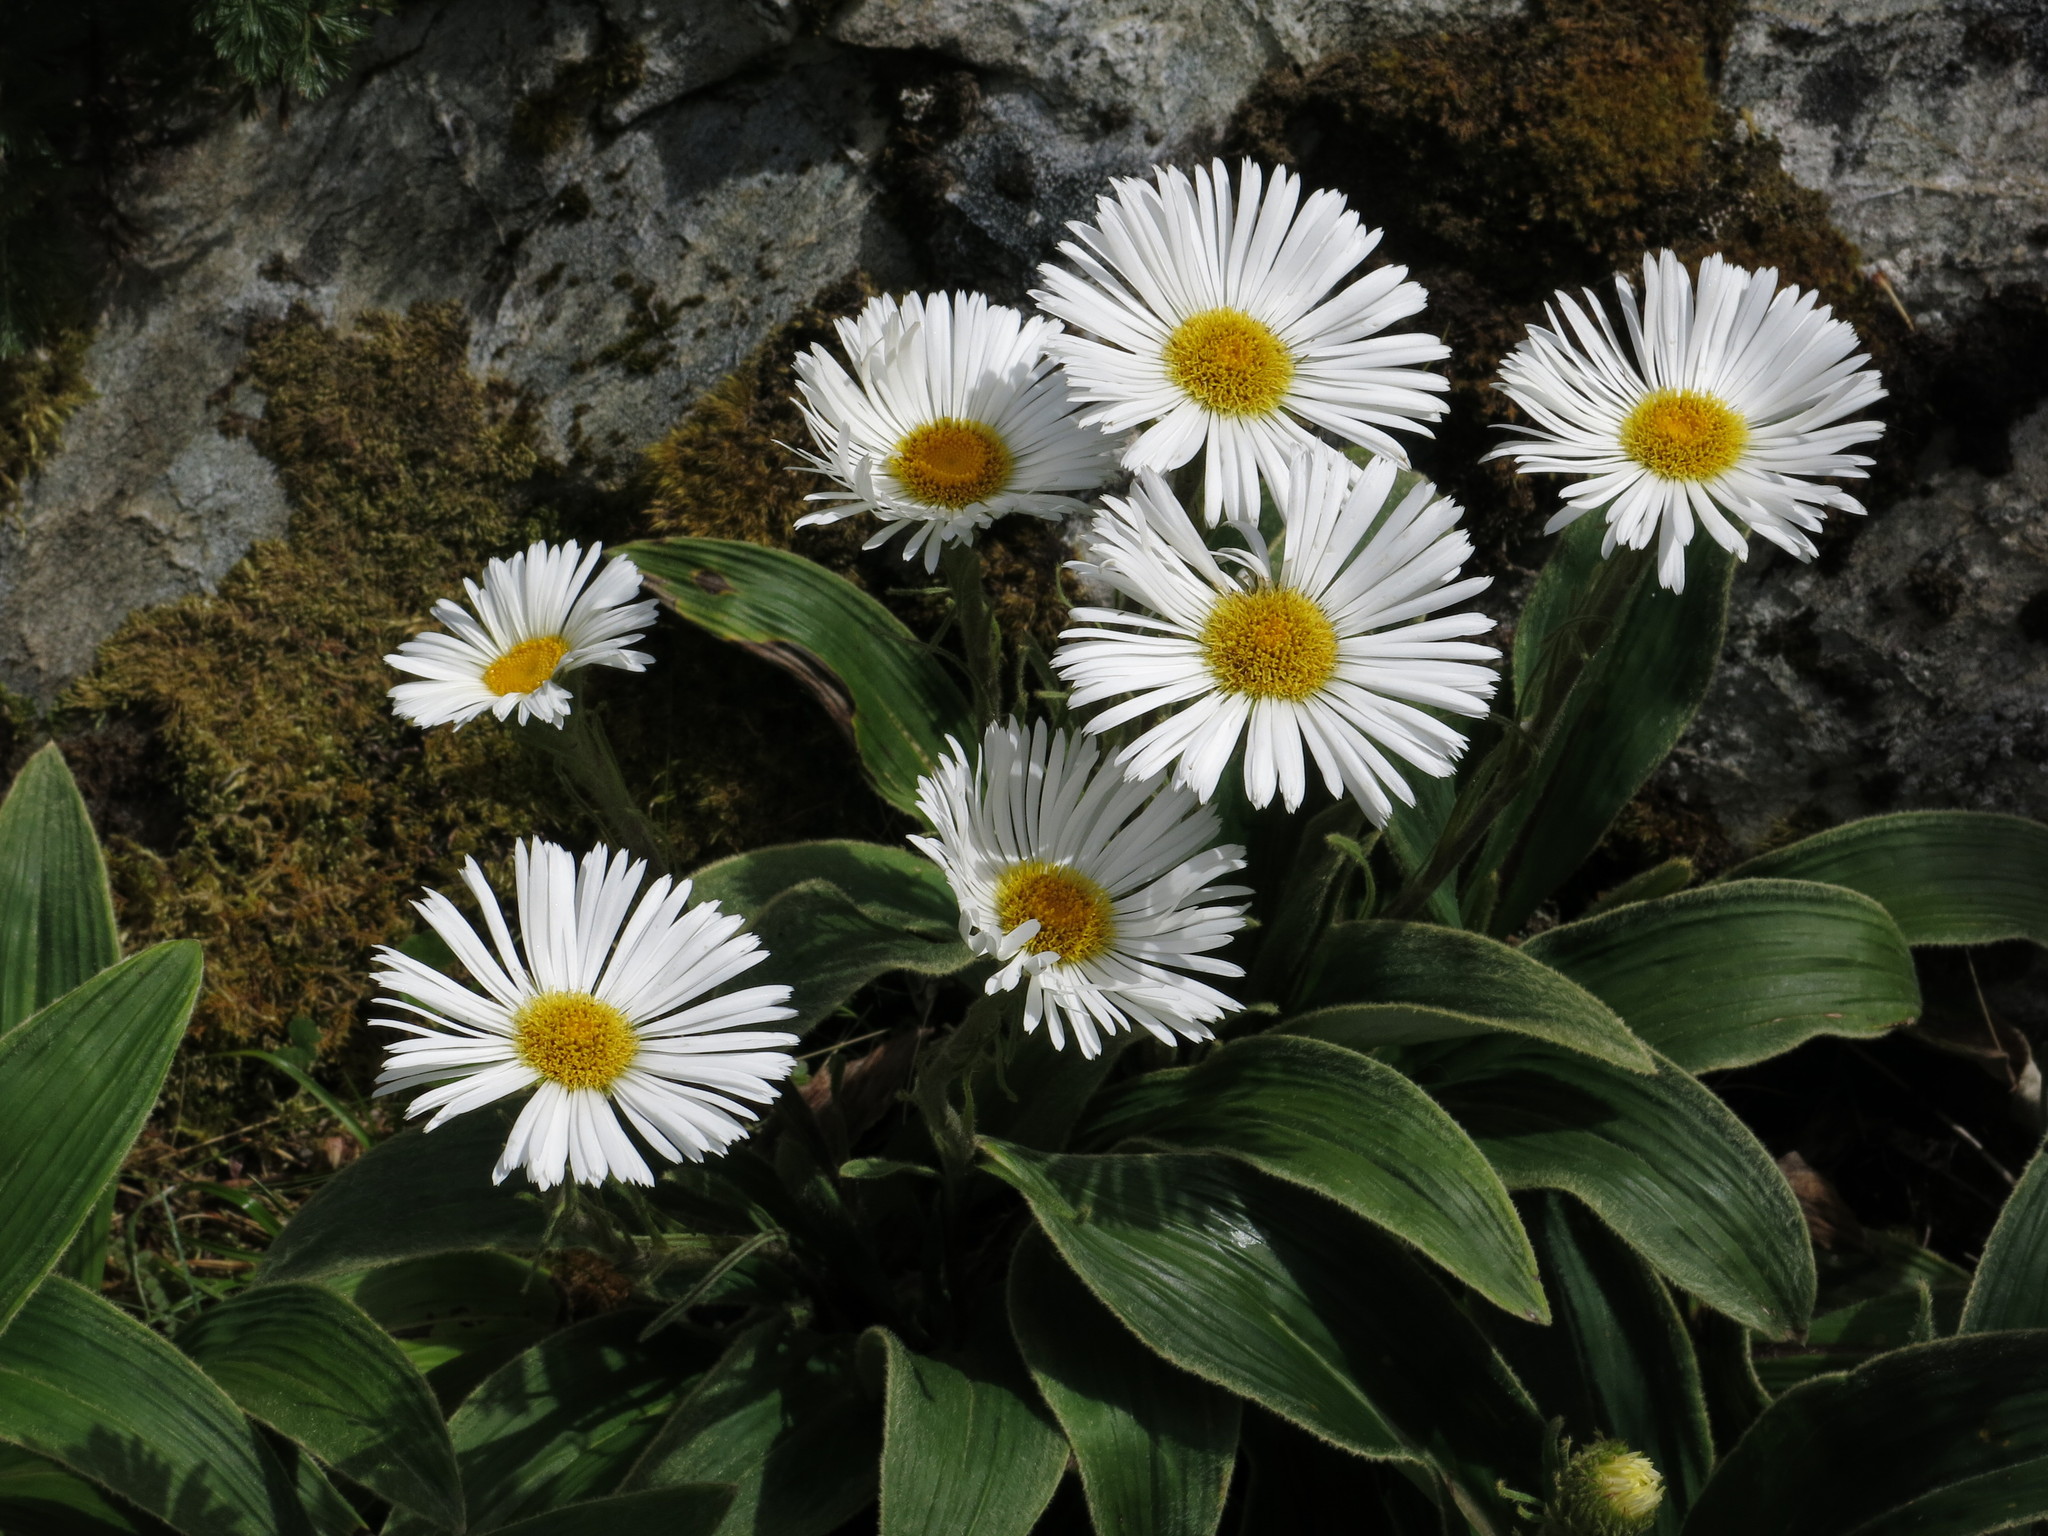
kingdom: Plantae
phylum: Tracheophyta
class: Magnoliopsida
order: Asterales
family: Asteraceae
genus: Celmisia
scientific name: Celmisia verbascifolia
